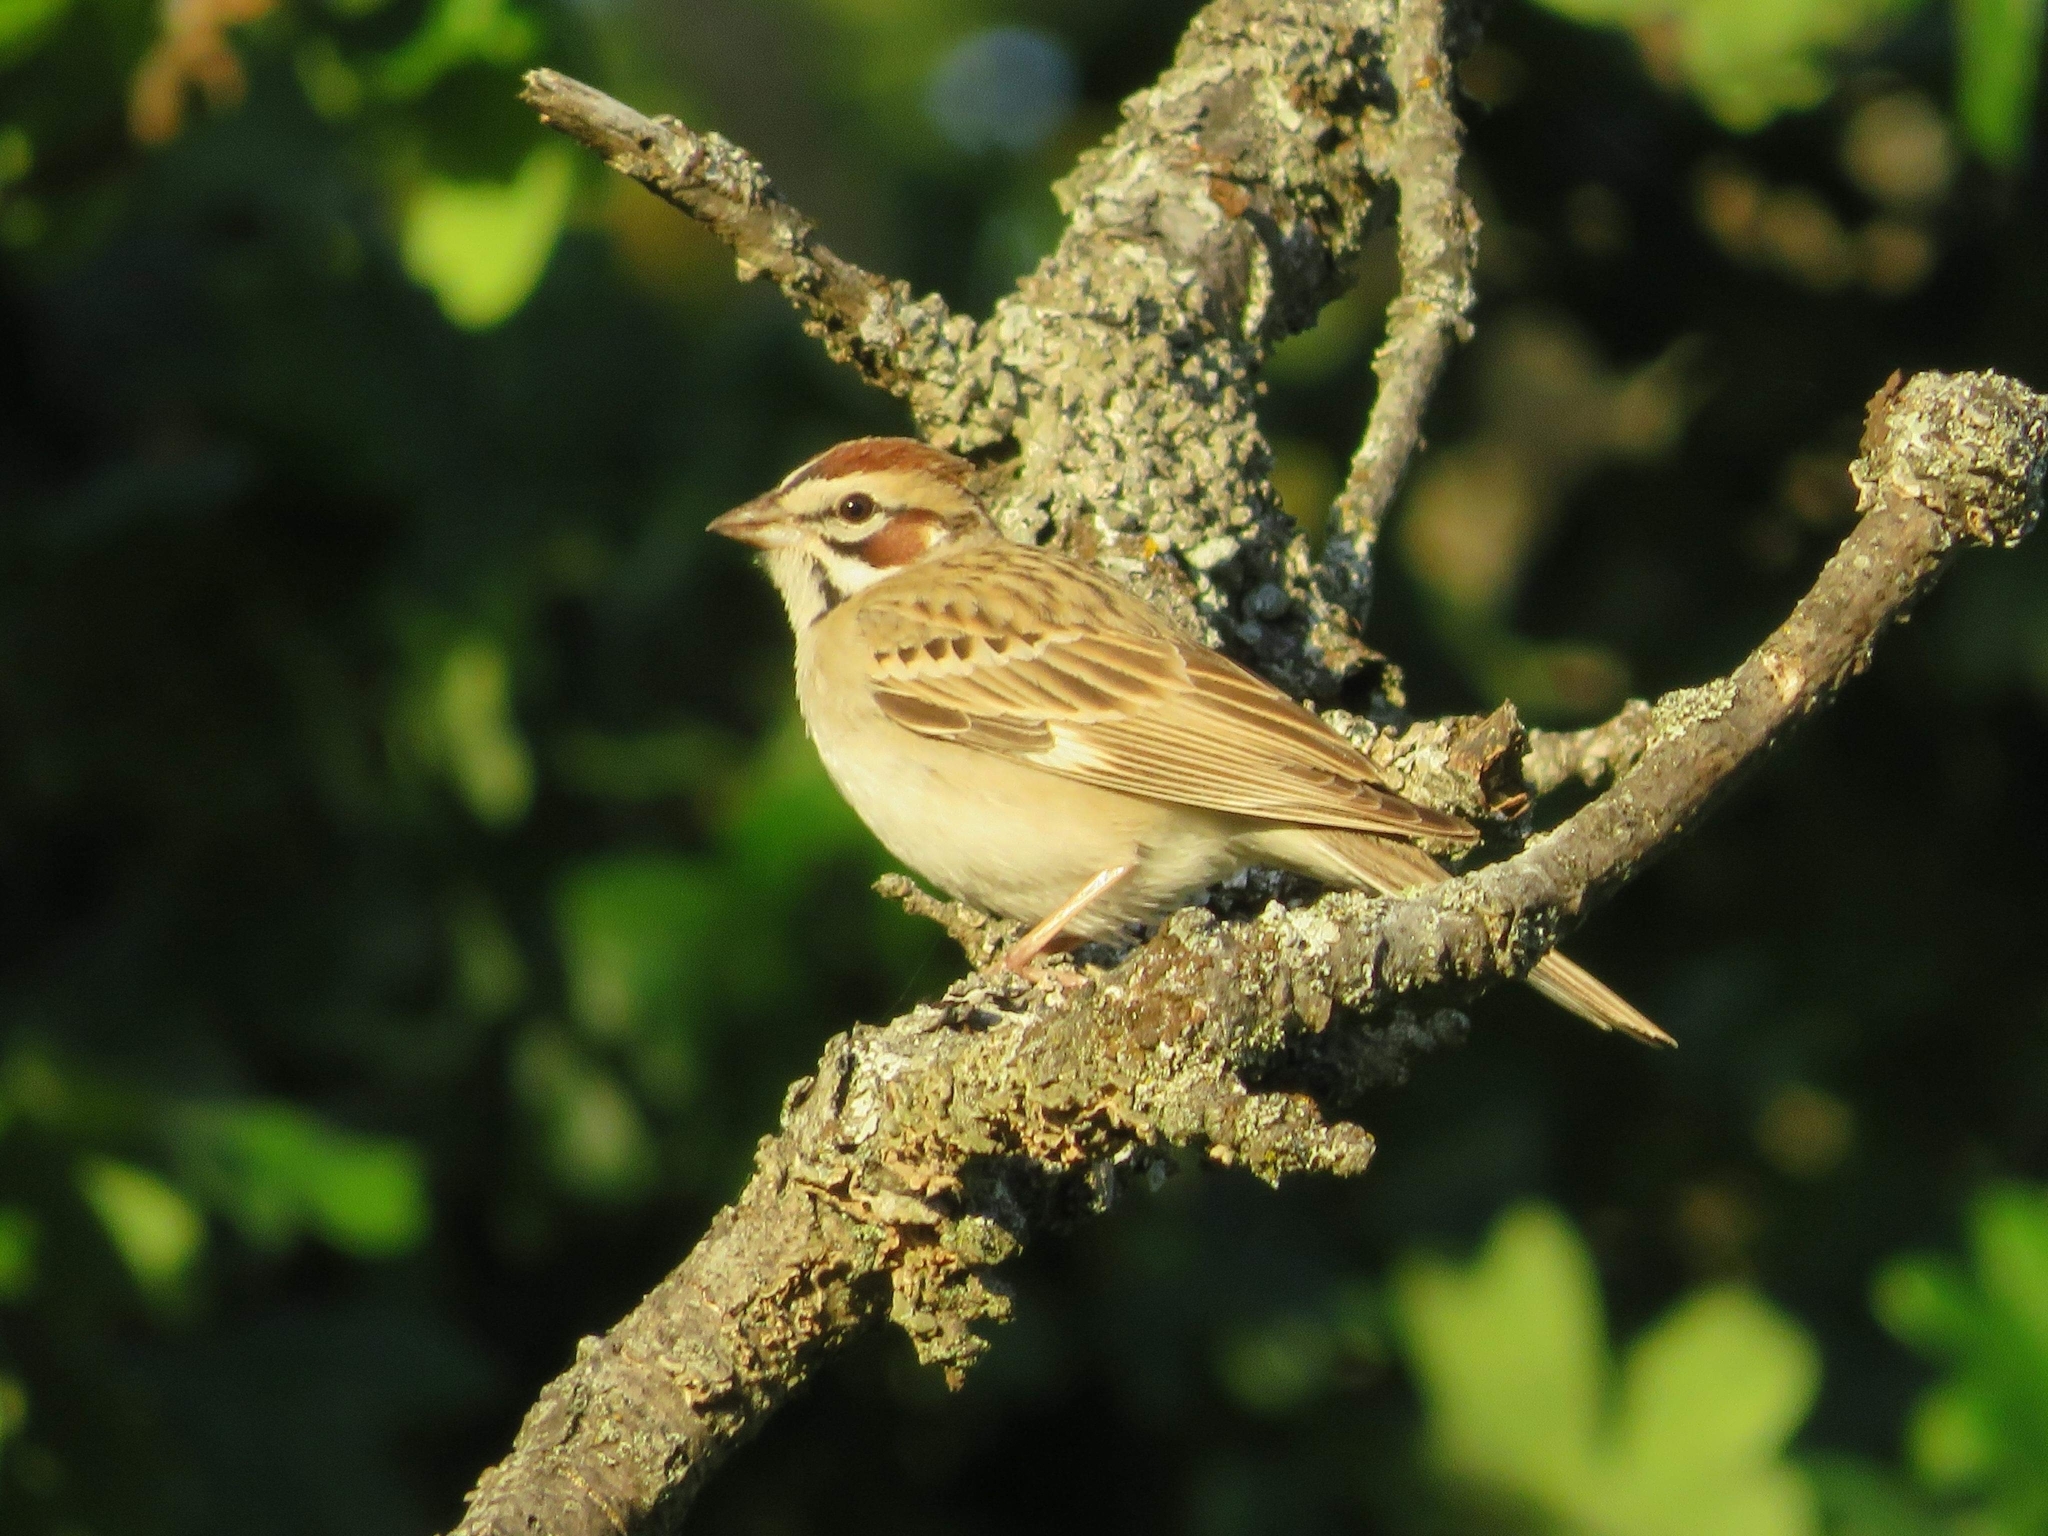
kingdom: Animalia
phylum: Chordata
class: Aves
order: Passeriformes
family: Passerellidae
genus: Chondestes
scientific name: Chondestes grammacus
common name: Lark sparrow
